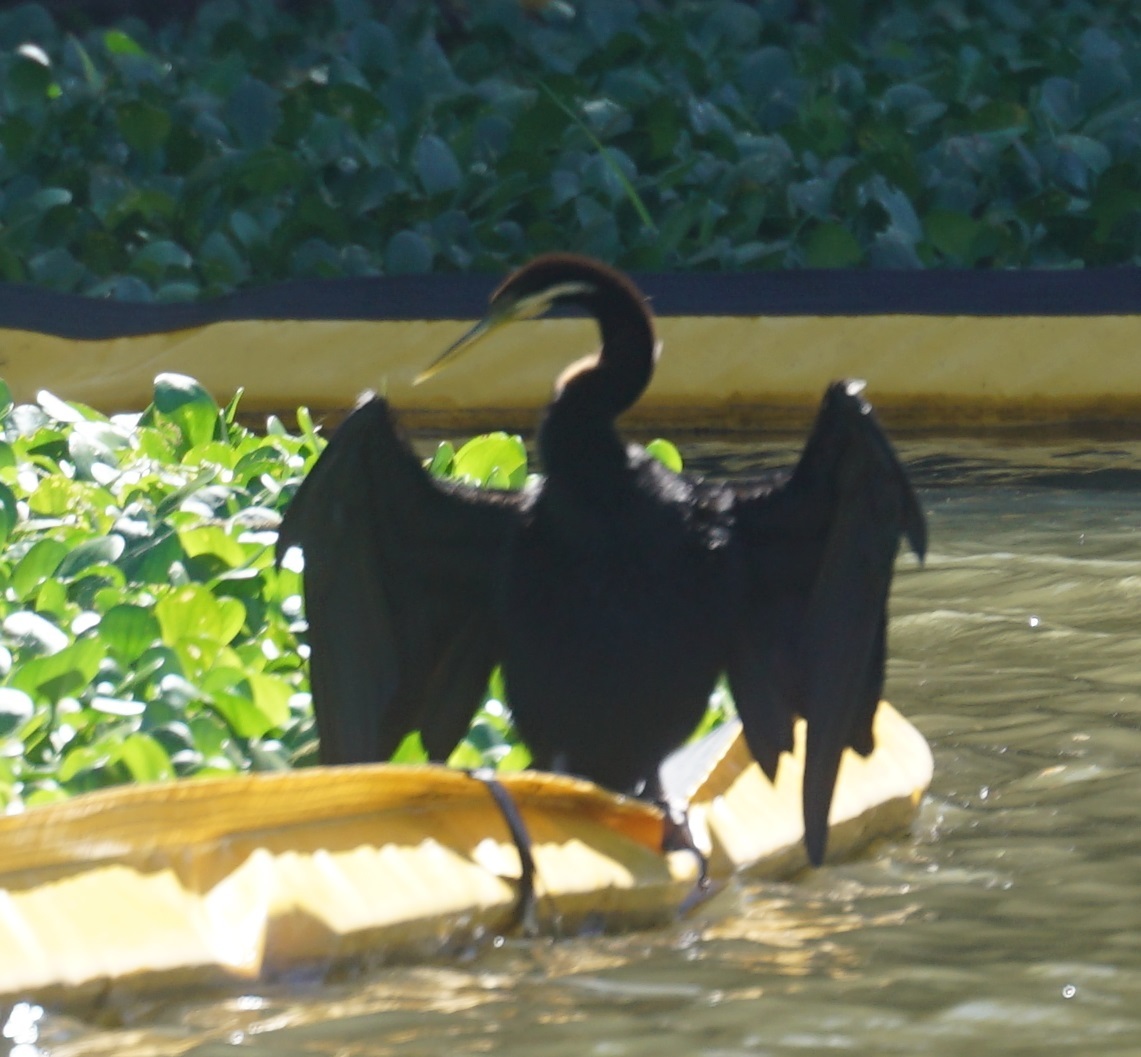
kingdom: Animalia
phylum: Chordata
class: Aves
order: Suliformes
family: Anhingidae
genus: Anhinga
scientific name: Anhinga novaehollandiae
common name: Australasian darter
